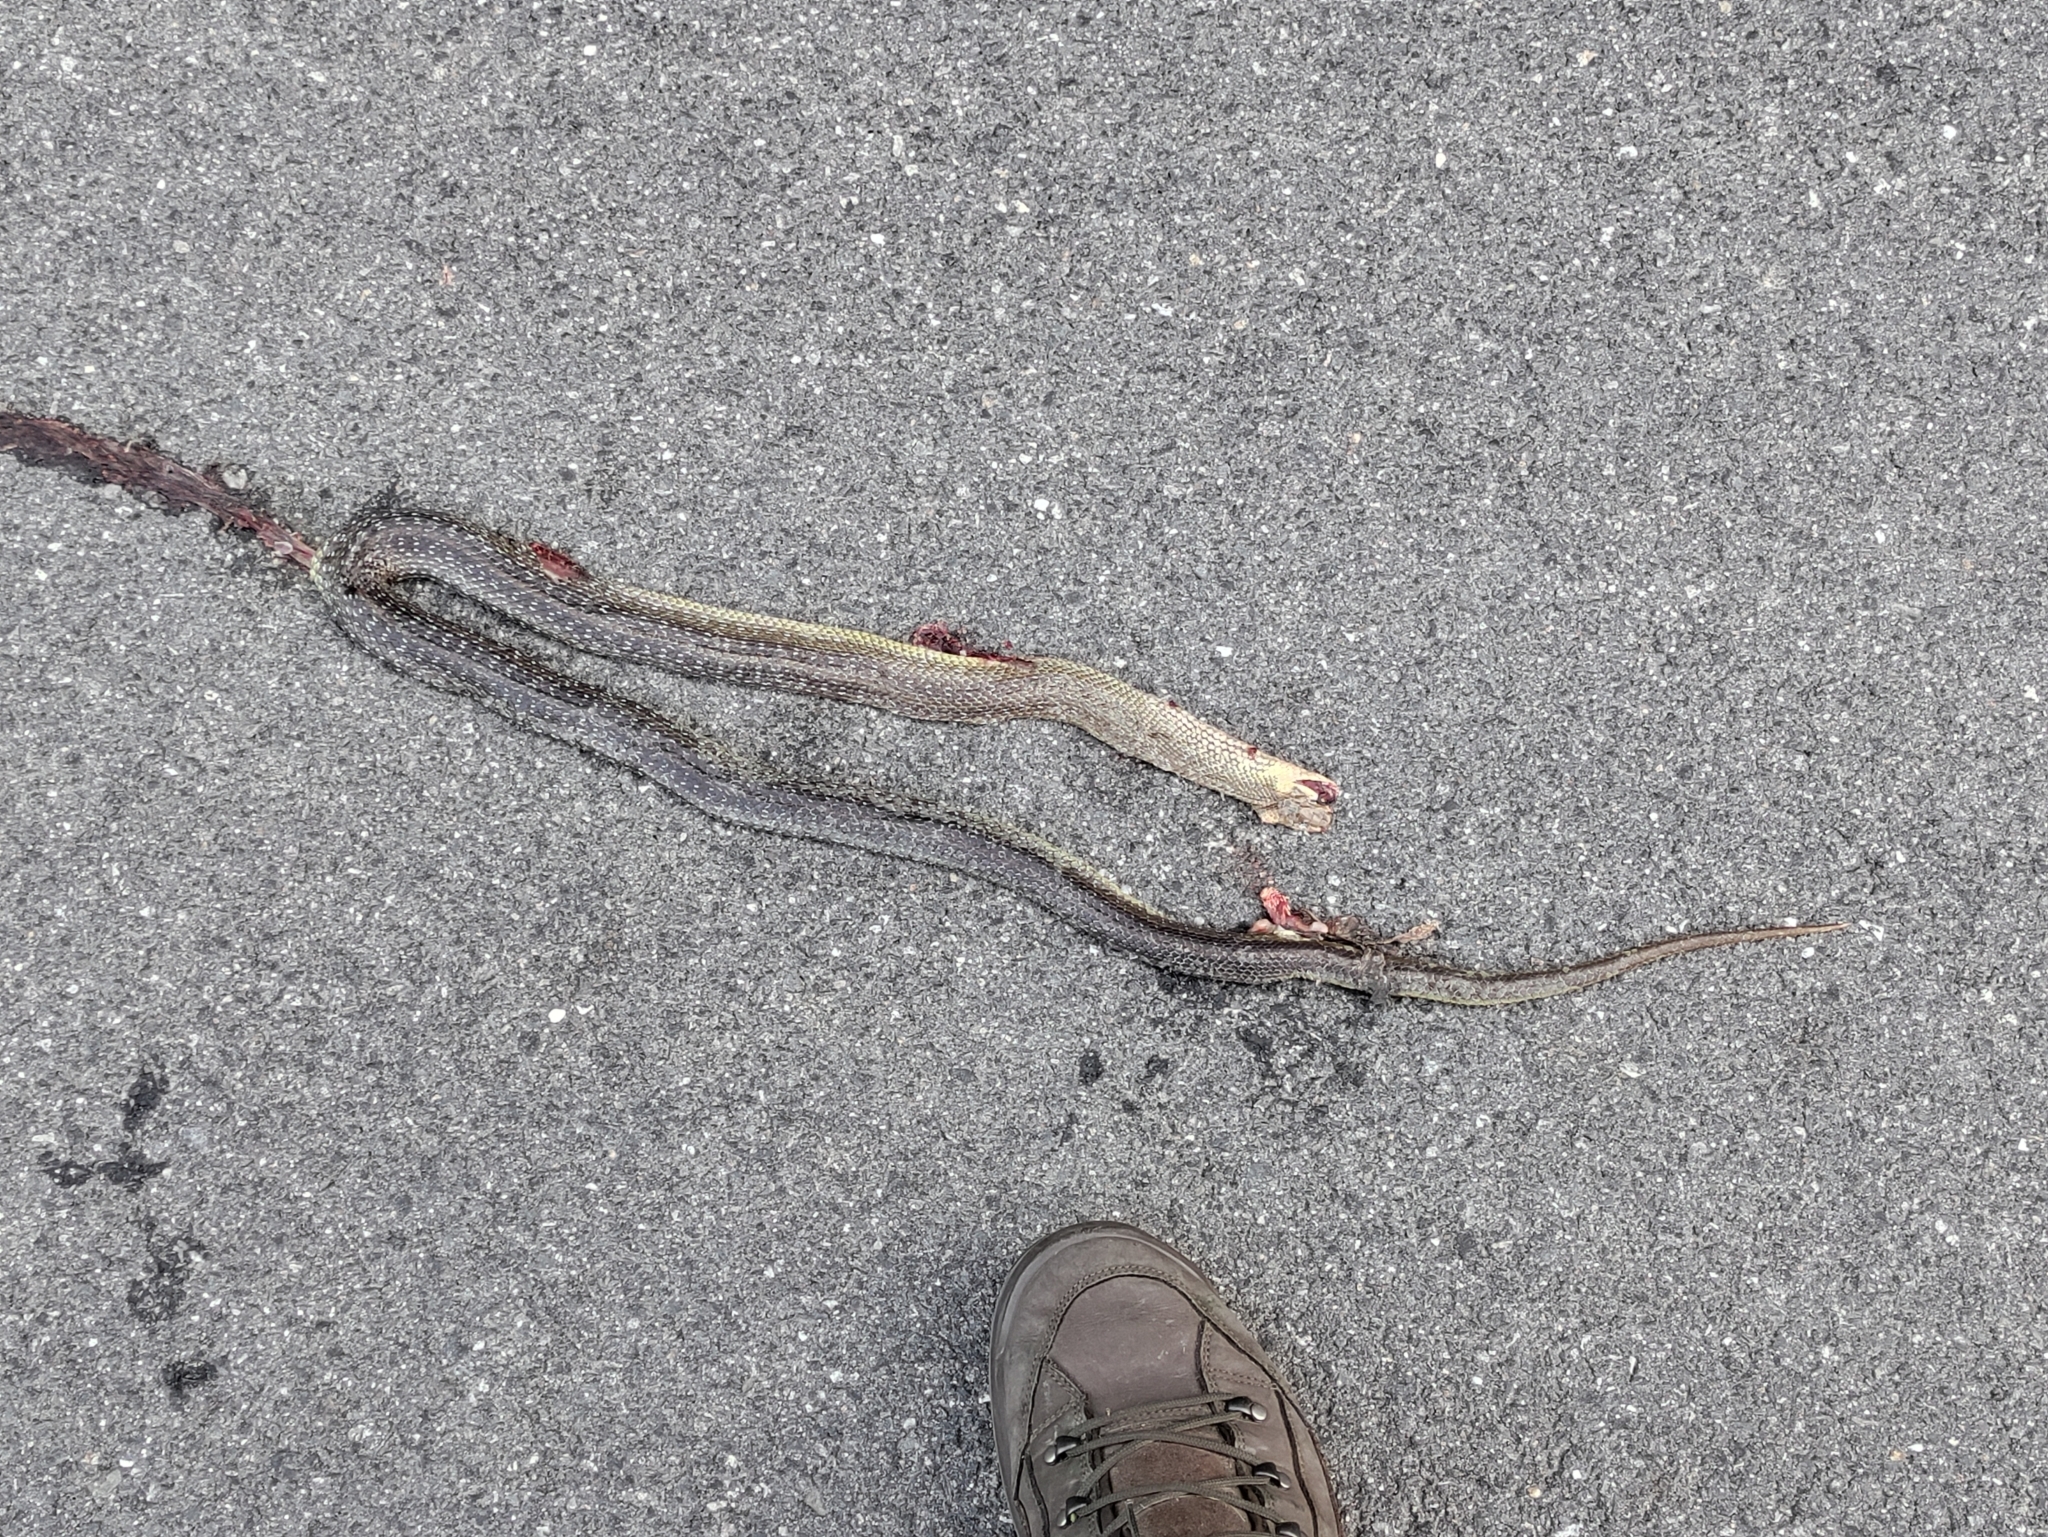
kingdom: Animalia
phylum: Chordata
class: Squamata
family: Colubridae
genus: Zamenis
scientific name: Zamenis longissimus
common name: Aesculapean snake
